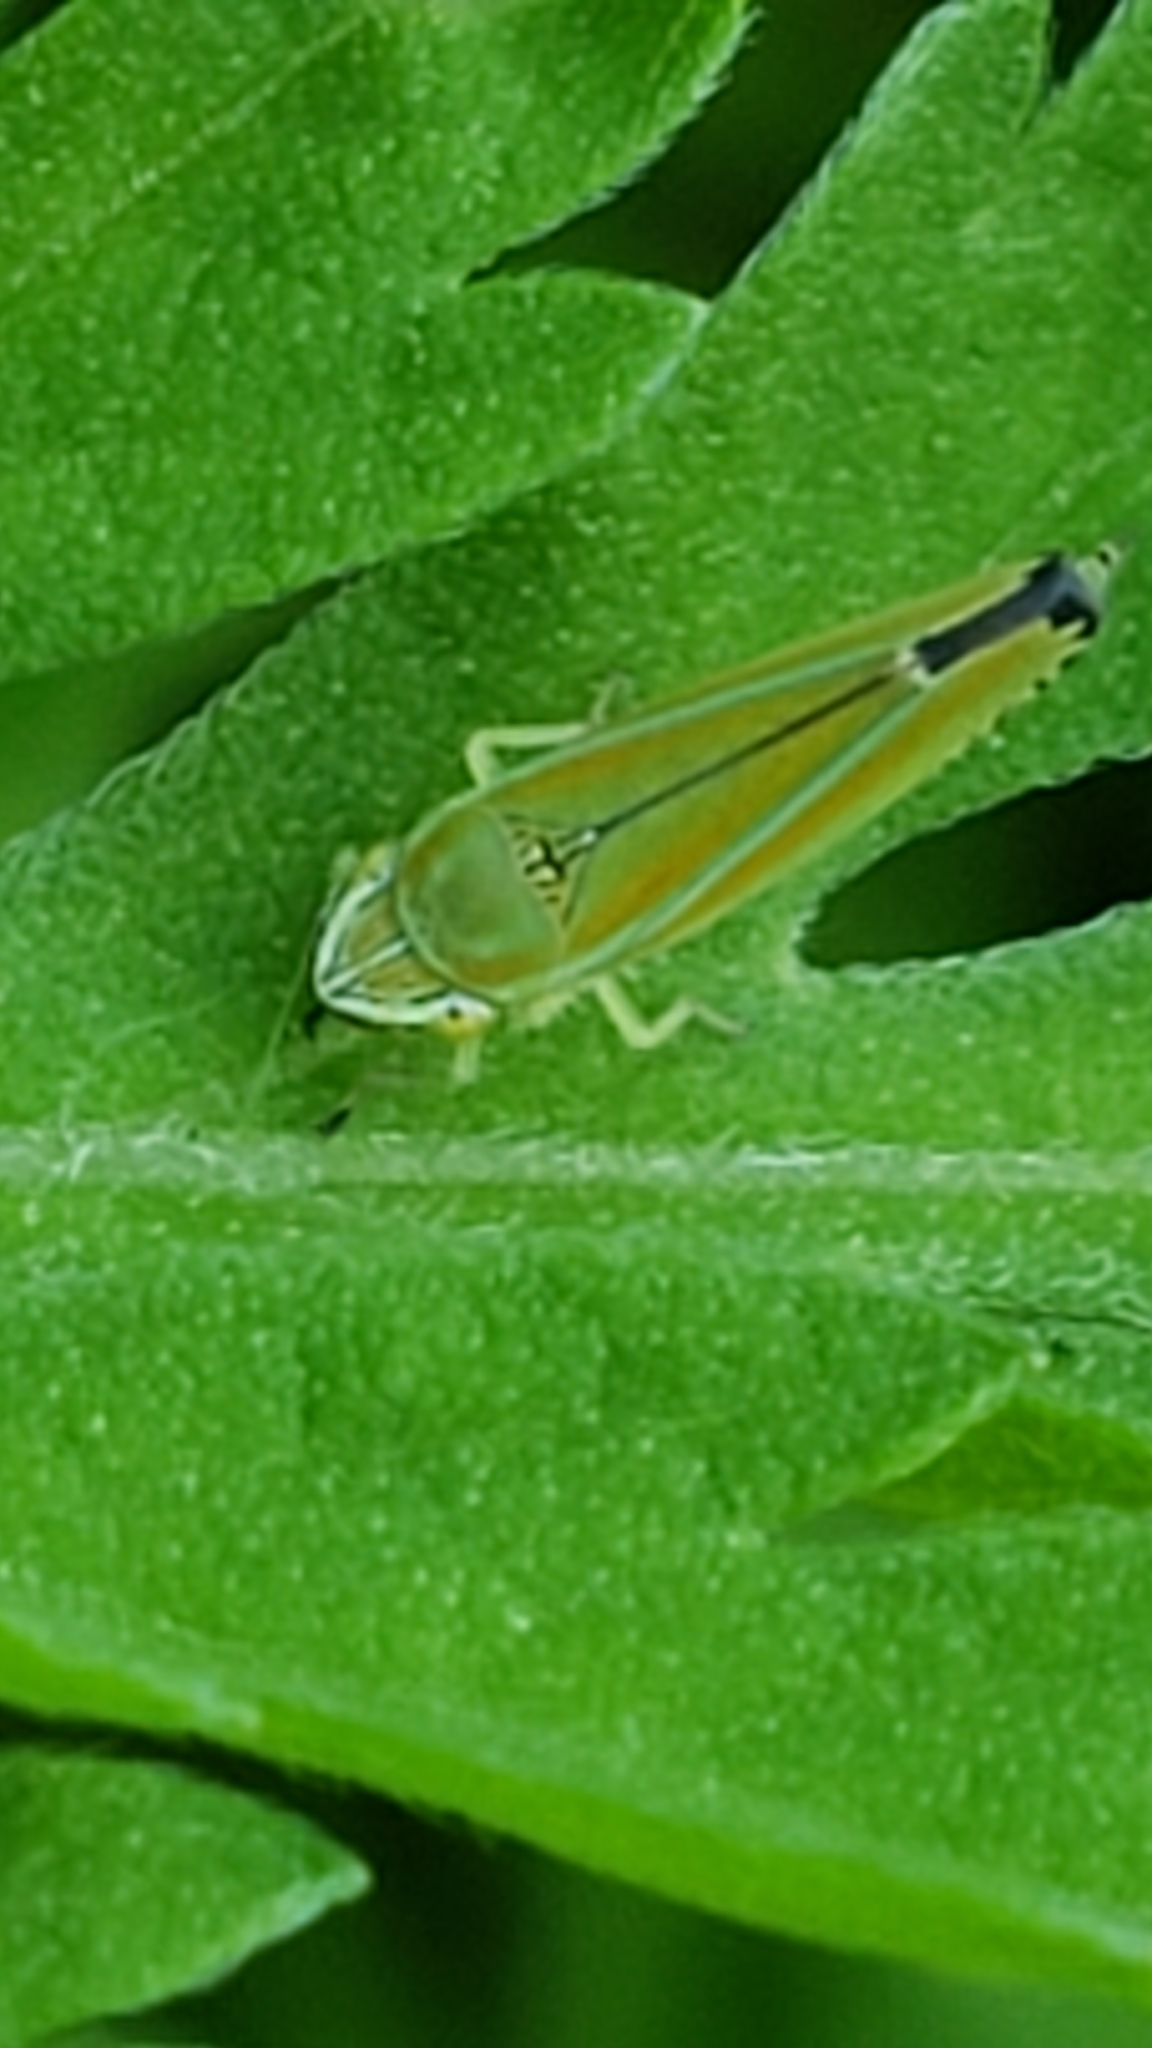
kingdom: Animalia
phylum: Arthropoda
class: Insecta
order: Hemiptera
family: Cicadellidae
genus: Graphocephala
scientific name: Graphocephala versuta
